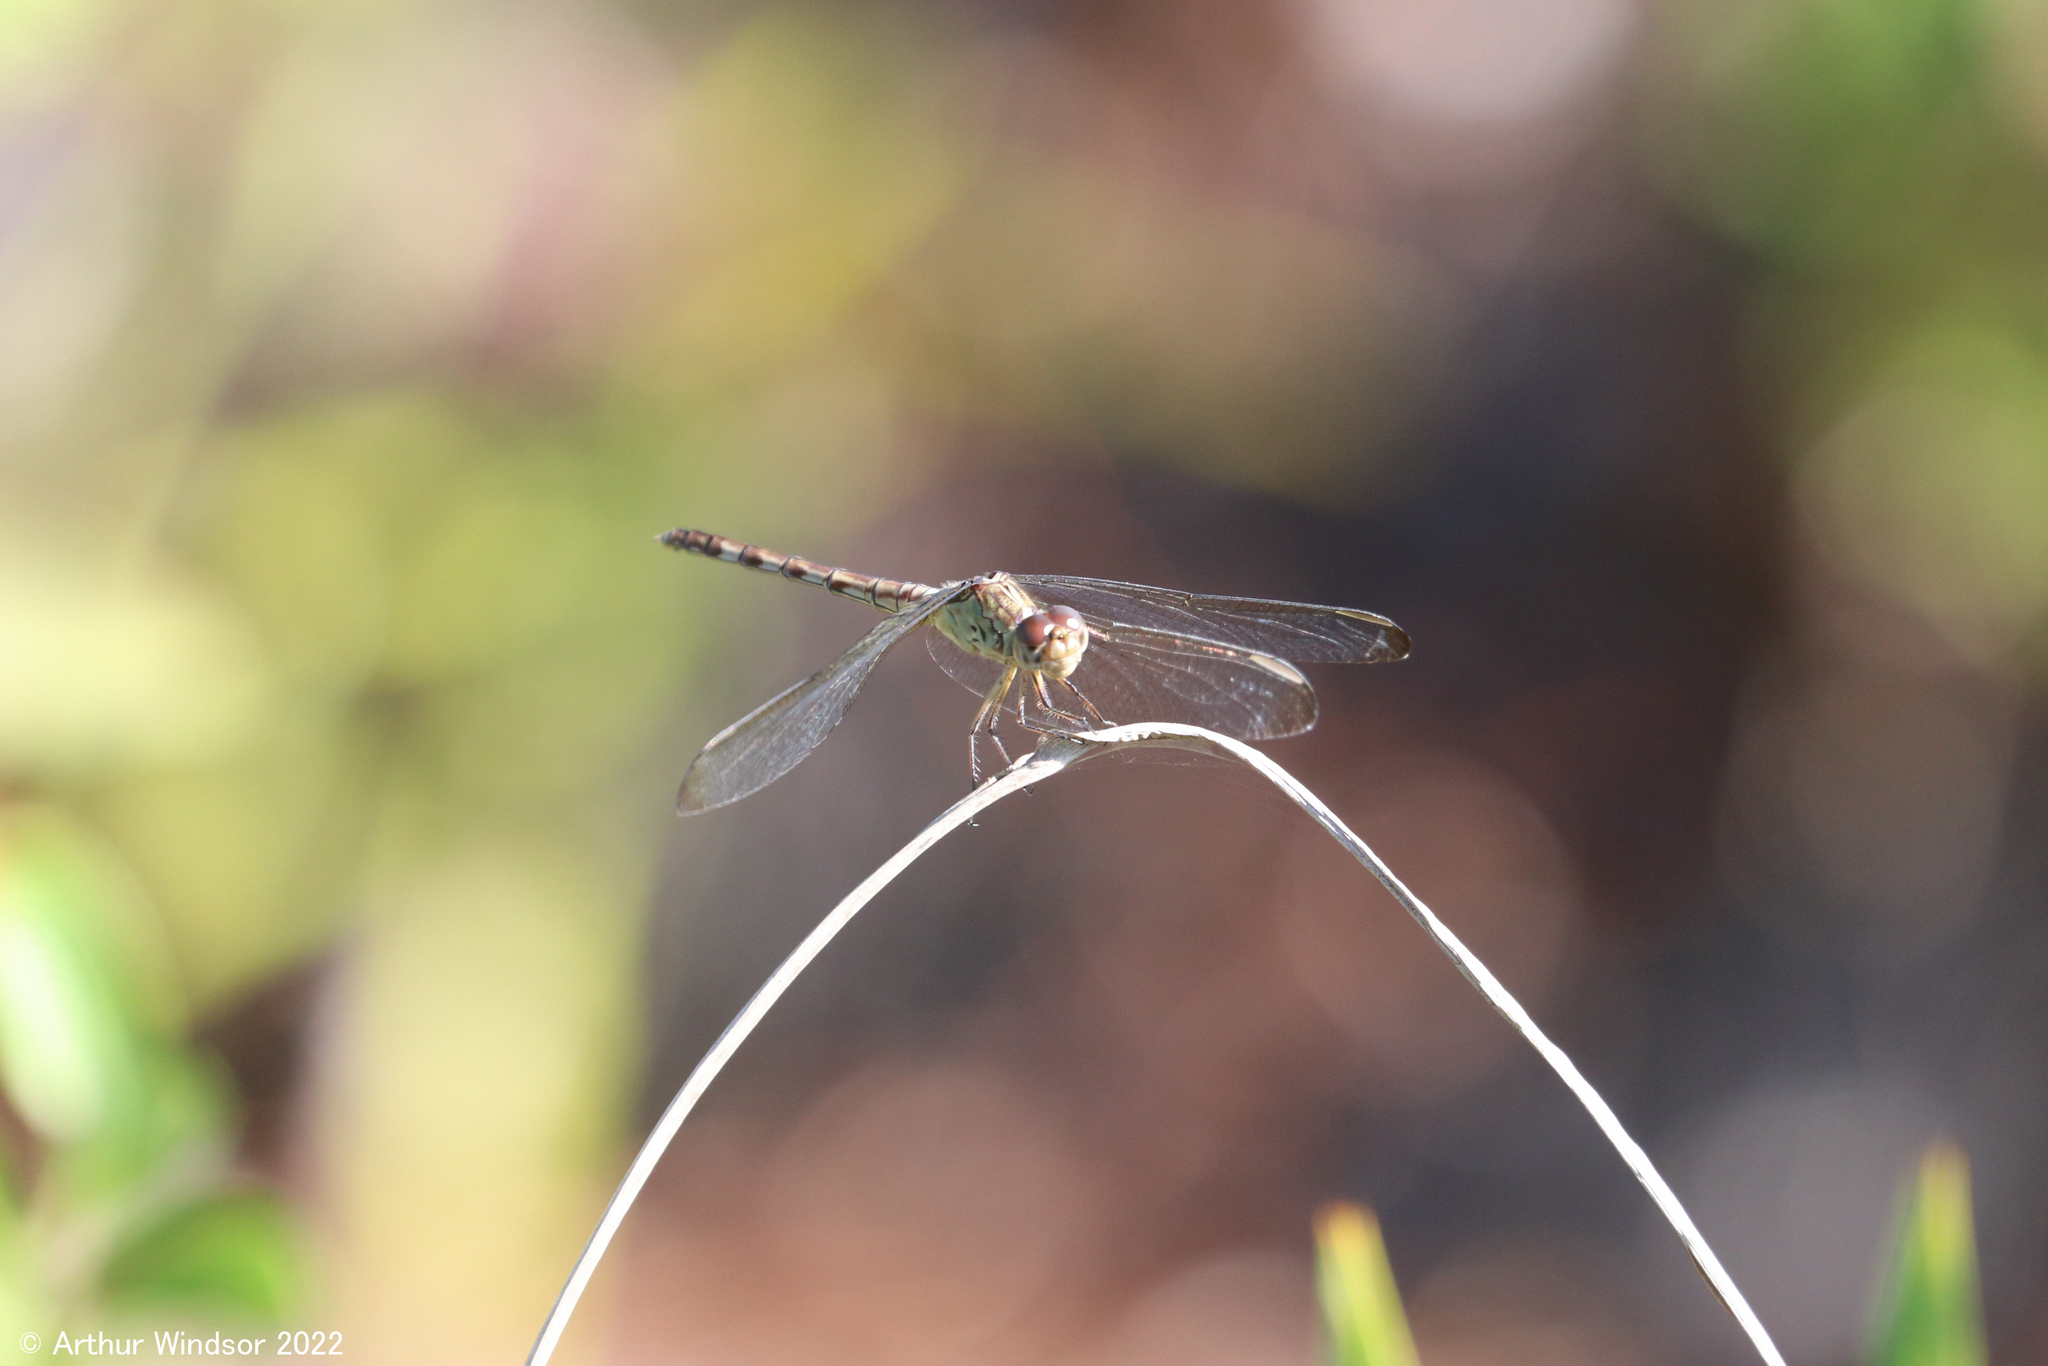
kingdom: Animalia
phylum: Arthropoda
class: Insecta
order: Odonata
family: Libellulidae
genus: Erythrodiplax
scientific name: Erythrodiplax umbrata
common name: Band-winged dragonlet
